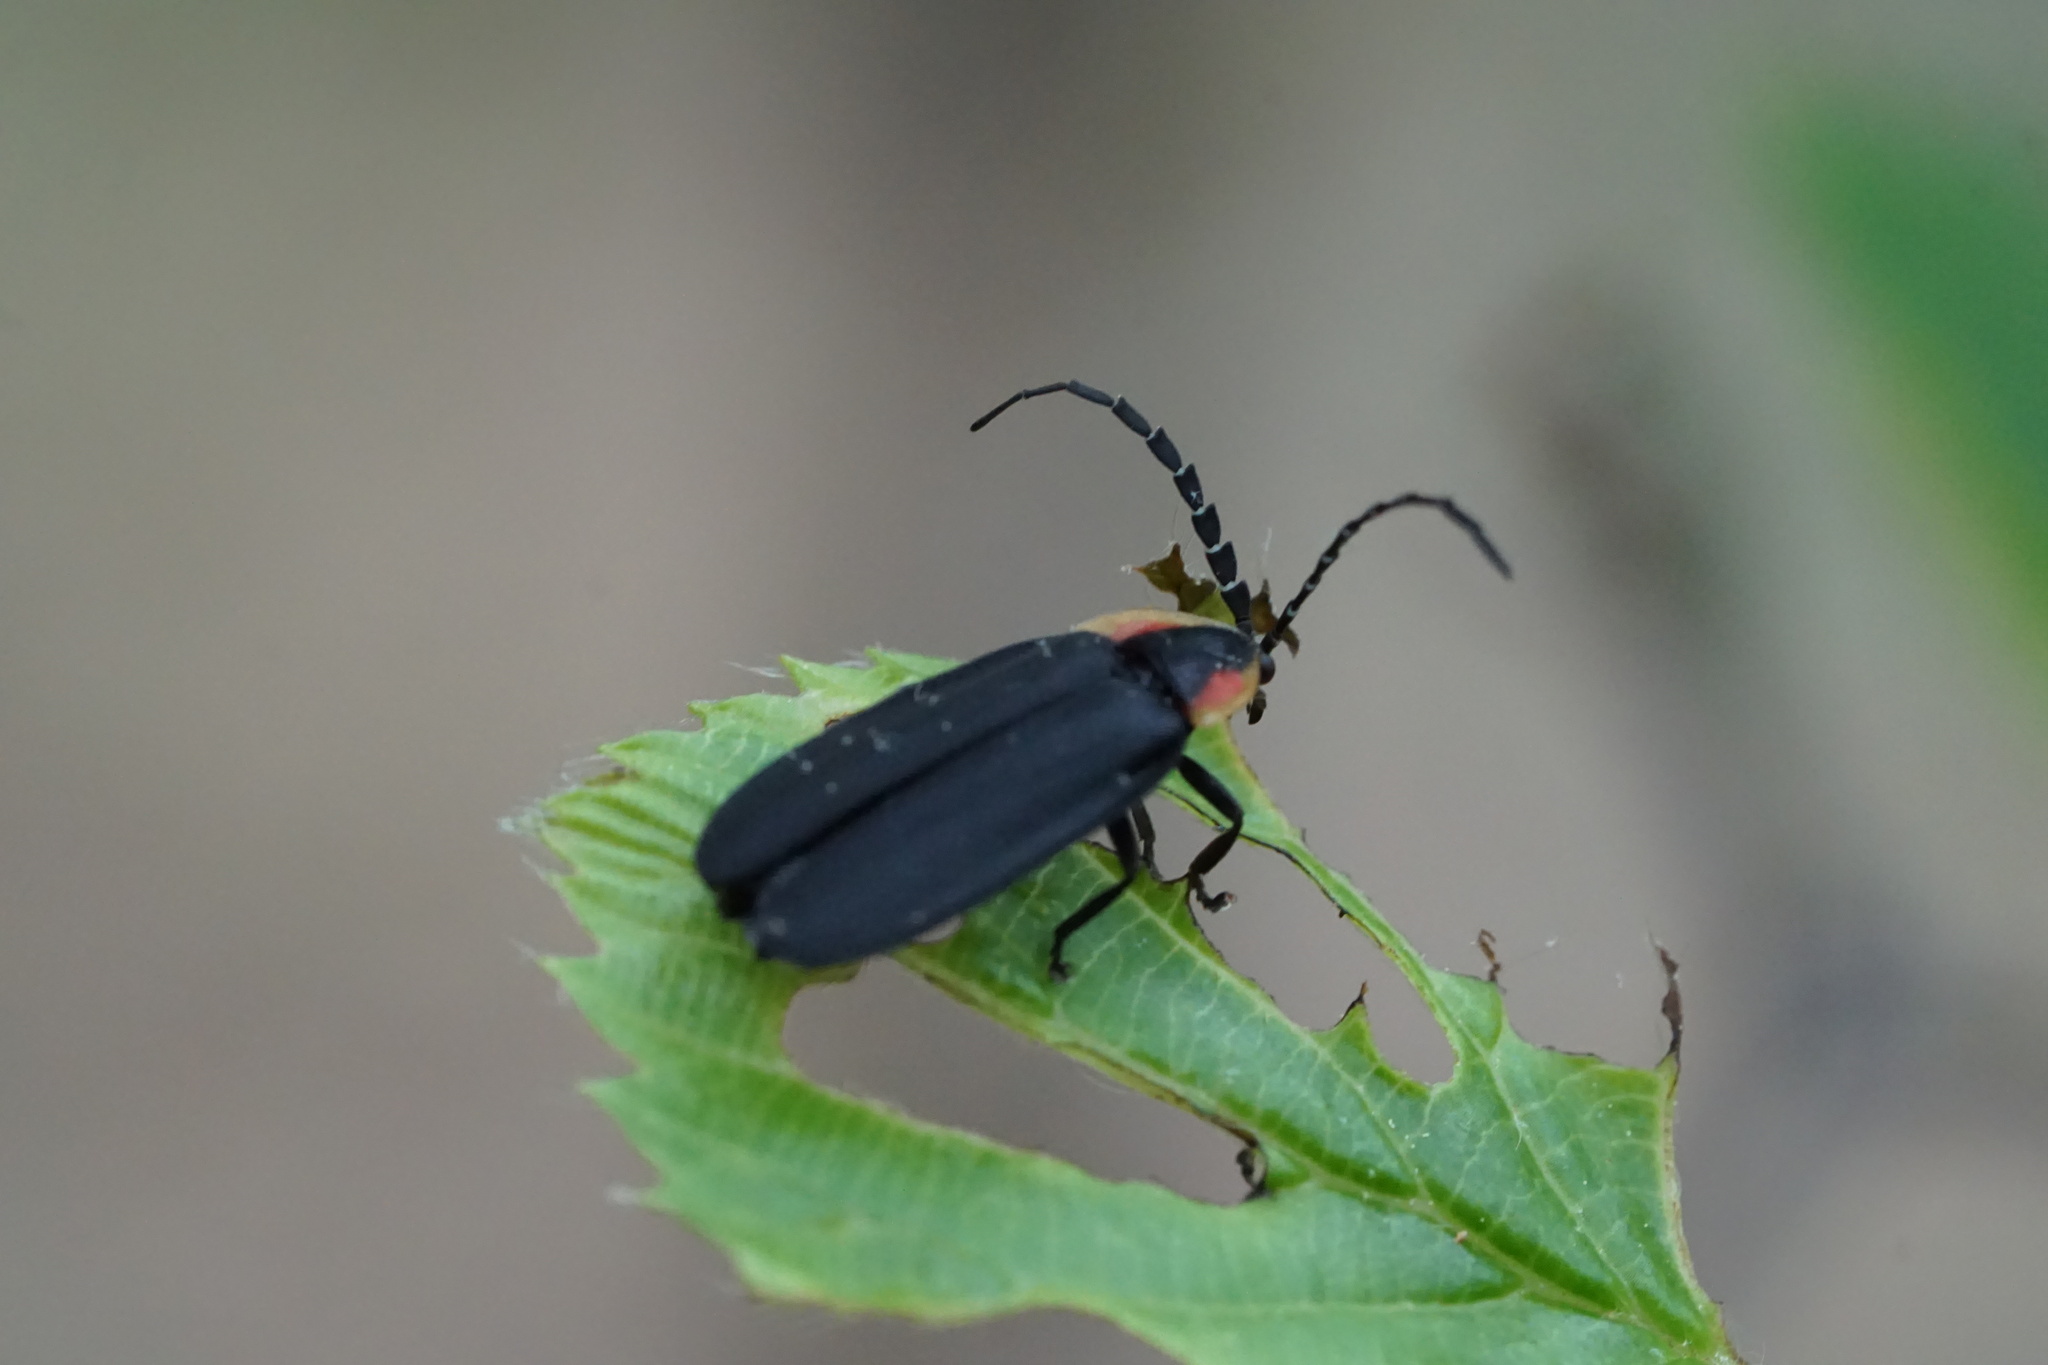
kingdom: Animalia
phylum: Arthropoda
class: Insecta
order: Coleoptera
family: Lampyridae
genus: Lucidota
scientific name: Lucidota atra
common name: Black firefly
